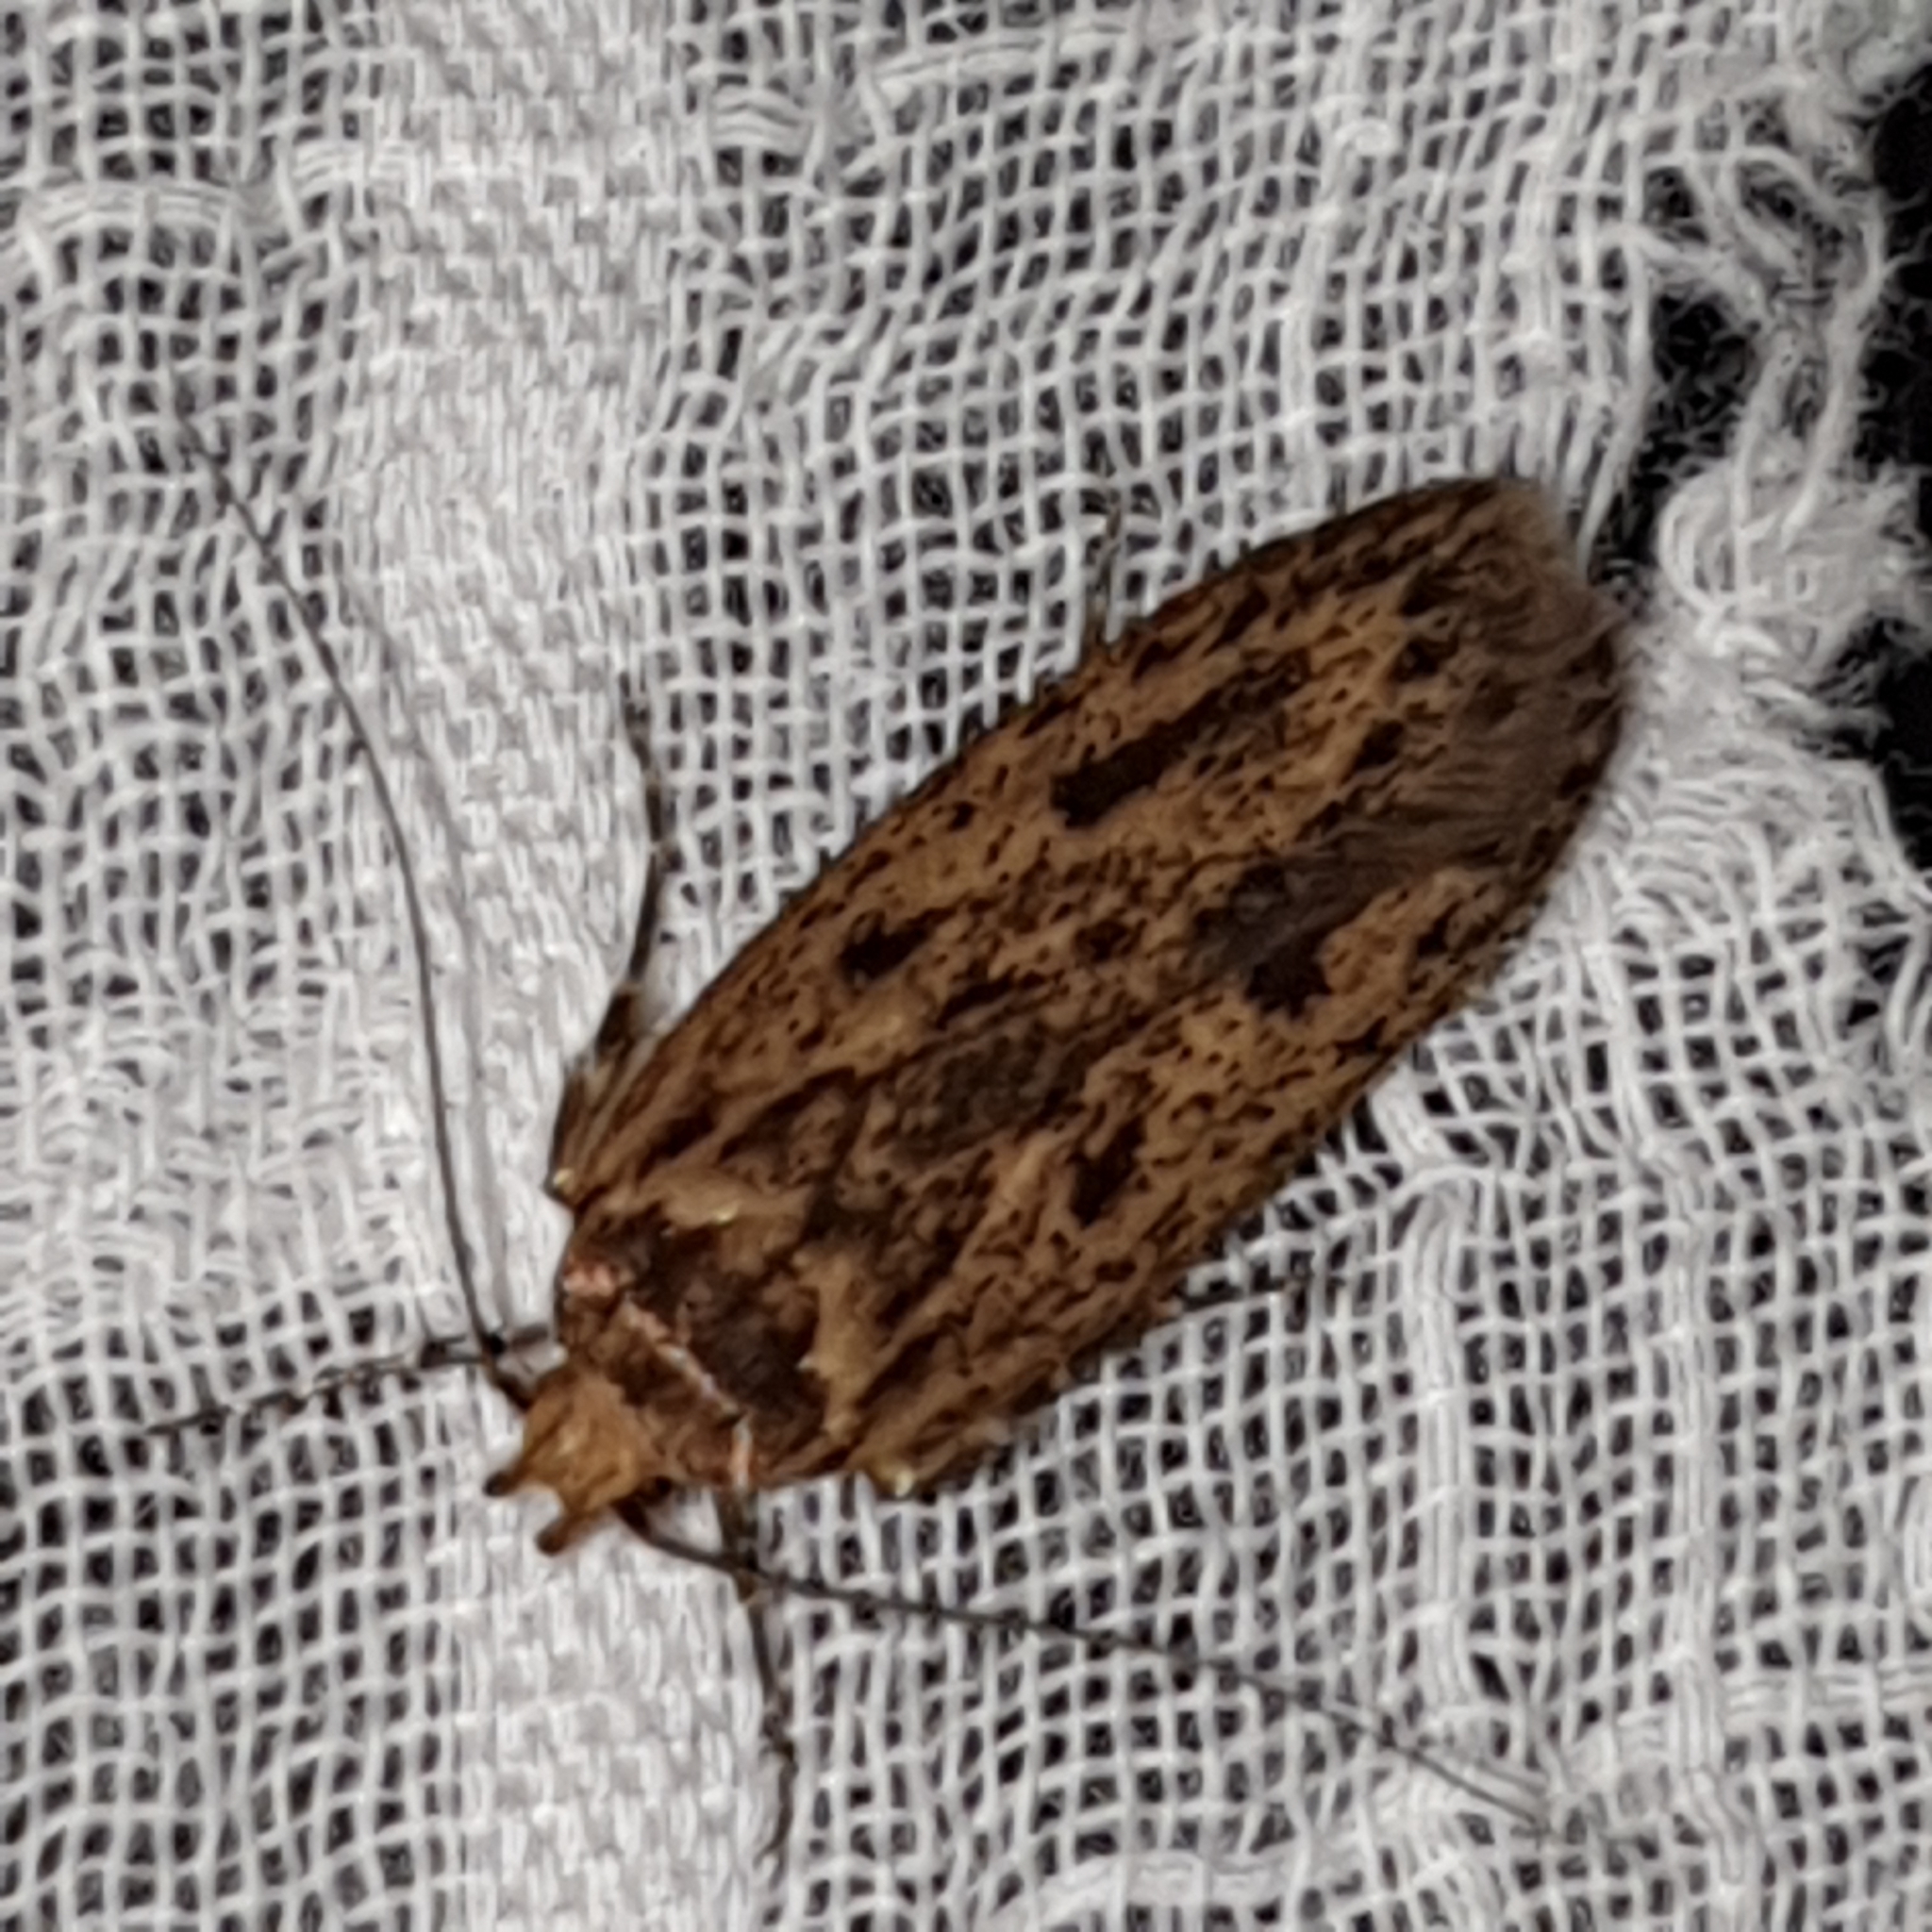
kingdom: Animalia
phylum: Arthropoda
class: Insecta
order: Lepidoptera
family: Oecophoridae
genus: Hofmannophila
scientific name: Hofmannophila pseudospretella
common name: Brown house moth
